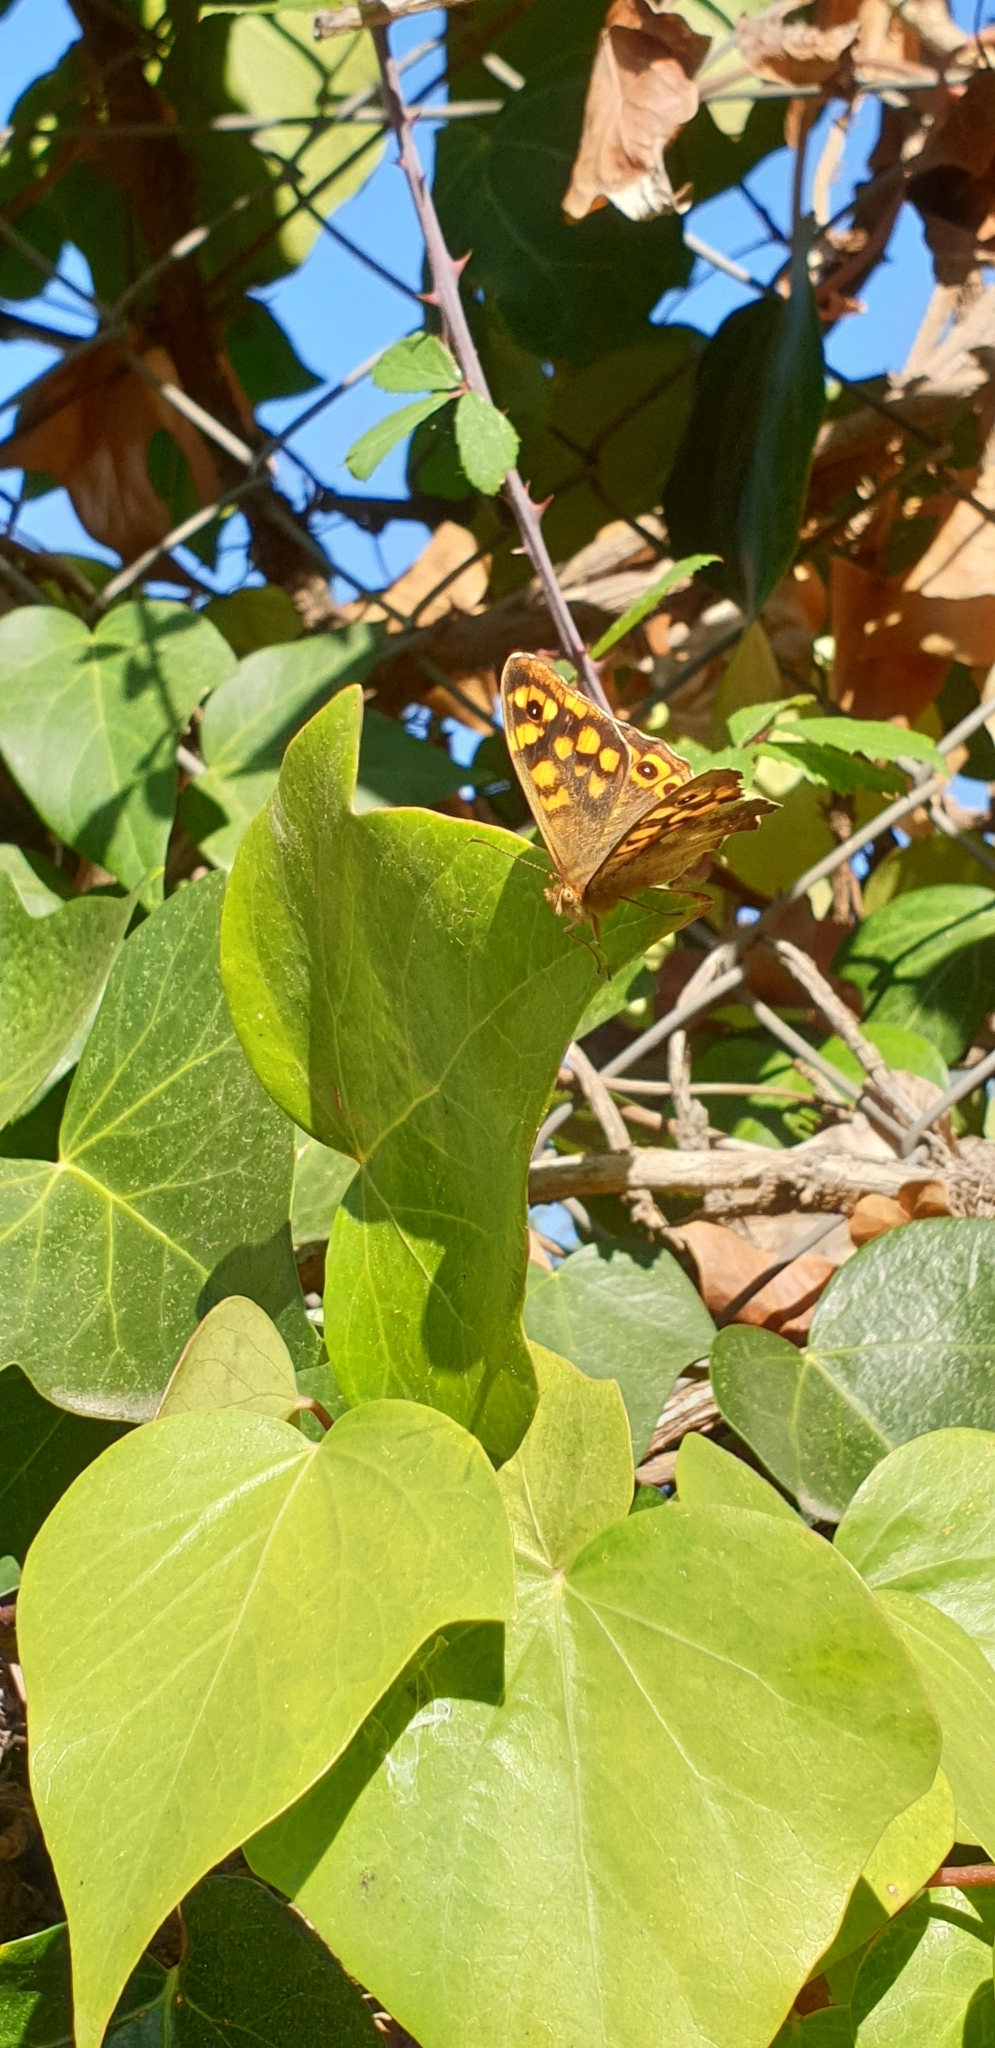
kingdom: Animalia
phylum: Arthropoda
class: Insecta
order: Lepidoptera
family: Nymphalidae
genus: Pararge
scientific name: Pararge aegeria
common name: Speckled wood
